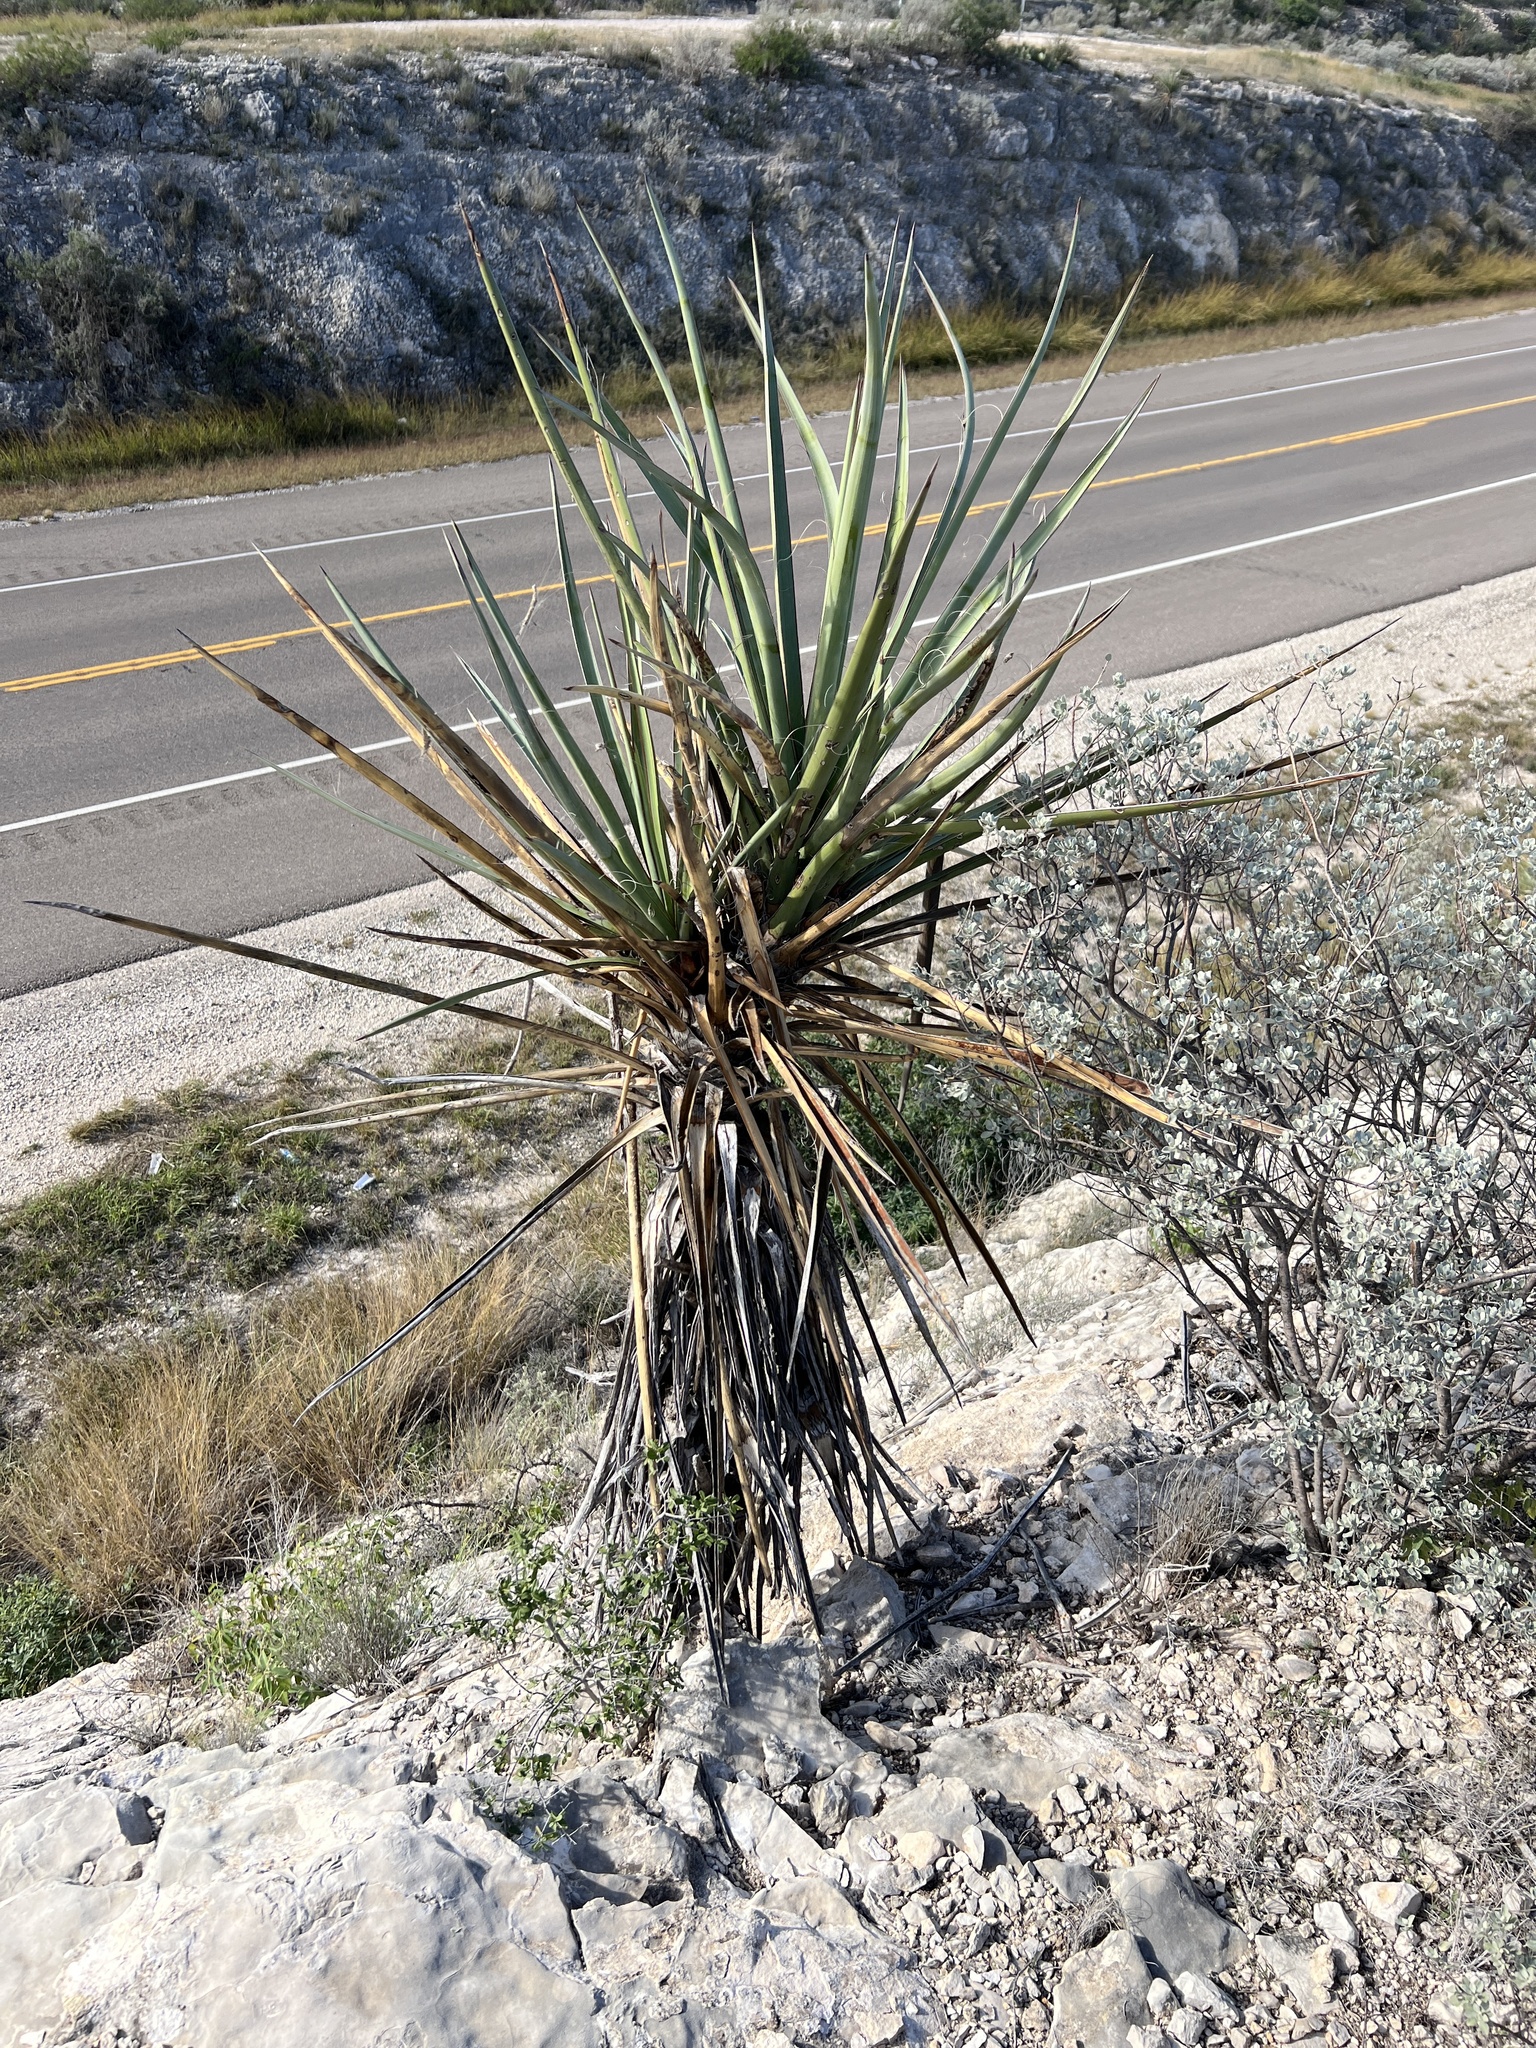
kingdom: Plantae
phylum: Tracheophyta
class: Liliopsida
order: Asparagales
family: Asparagaceae
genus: Yucca
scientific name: Yucca treculiana
